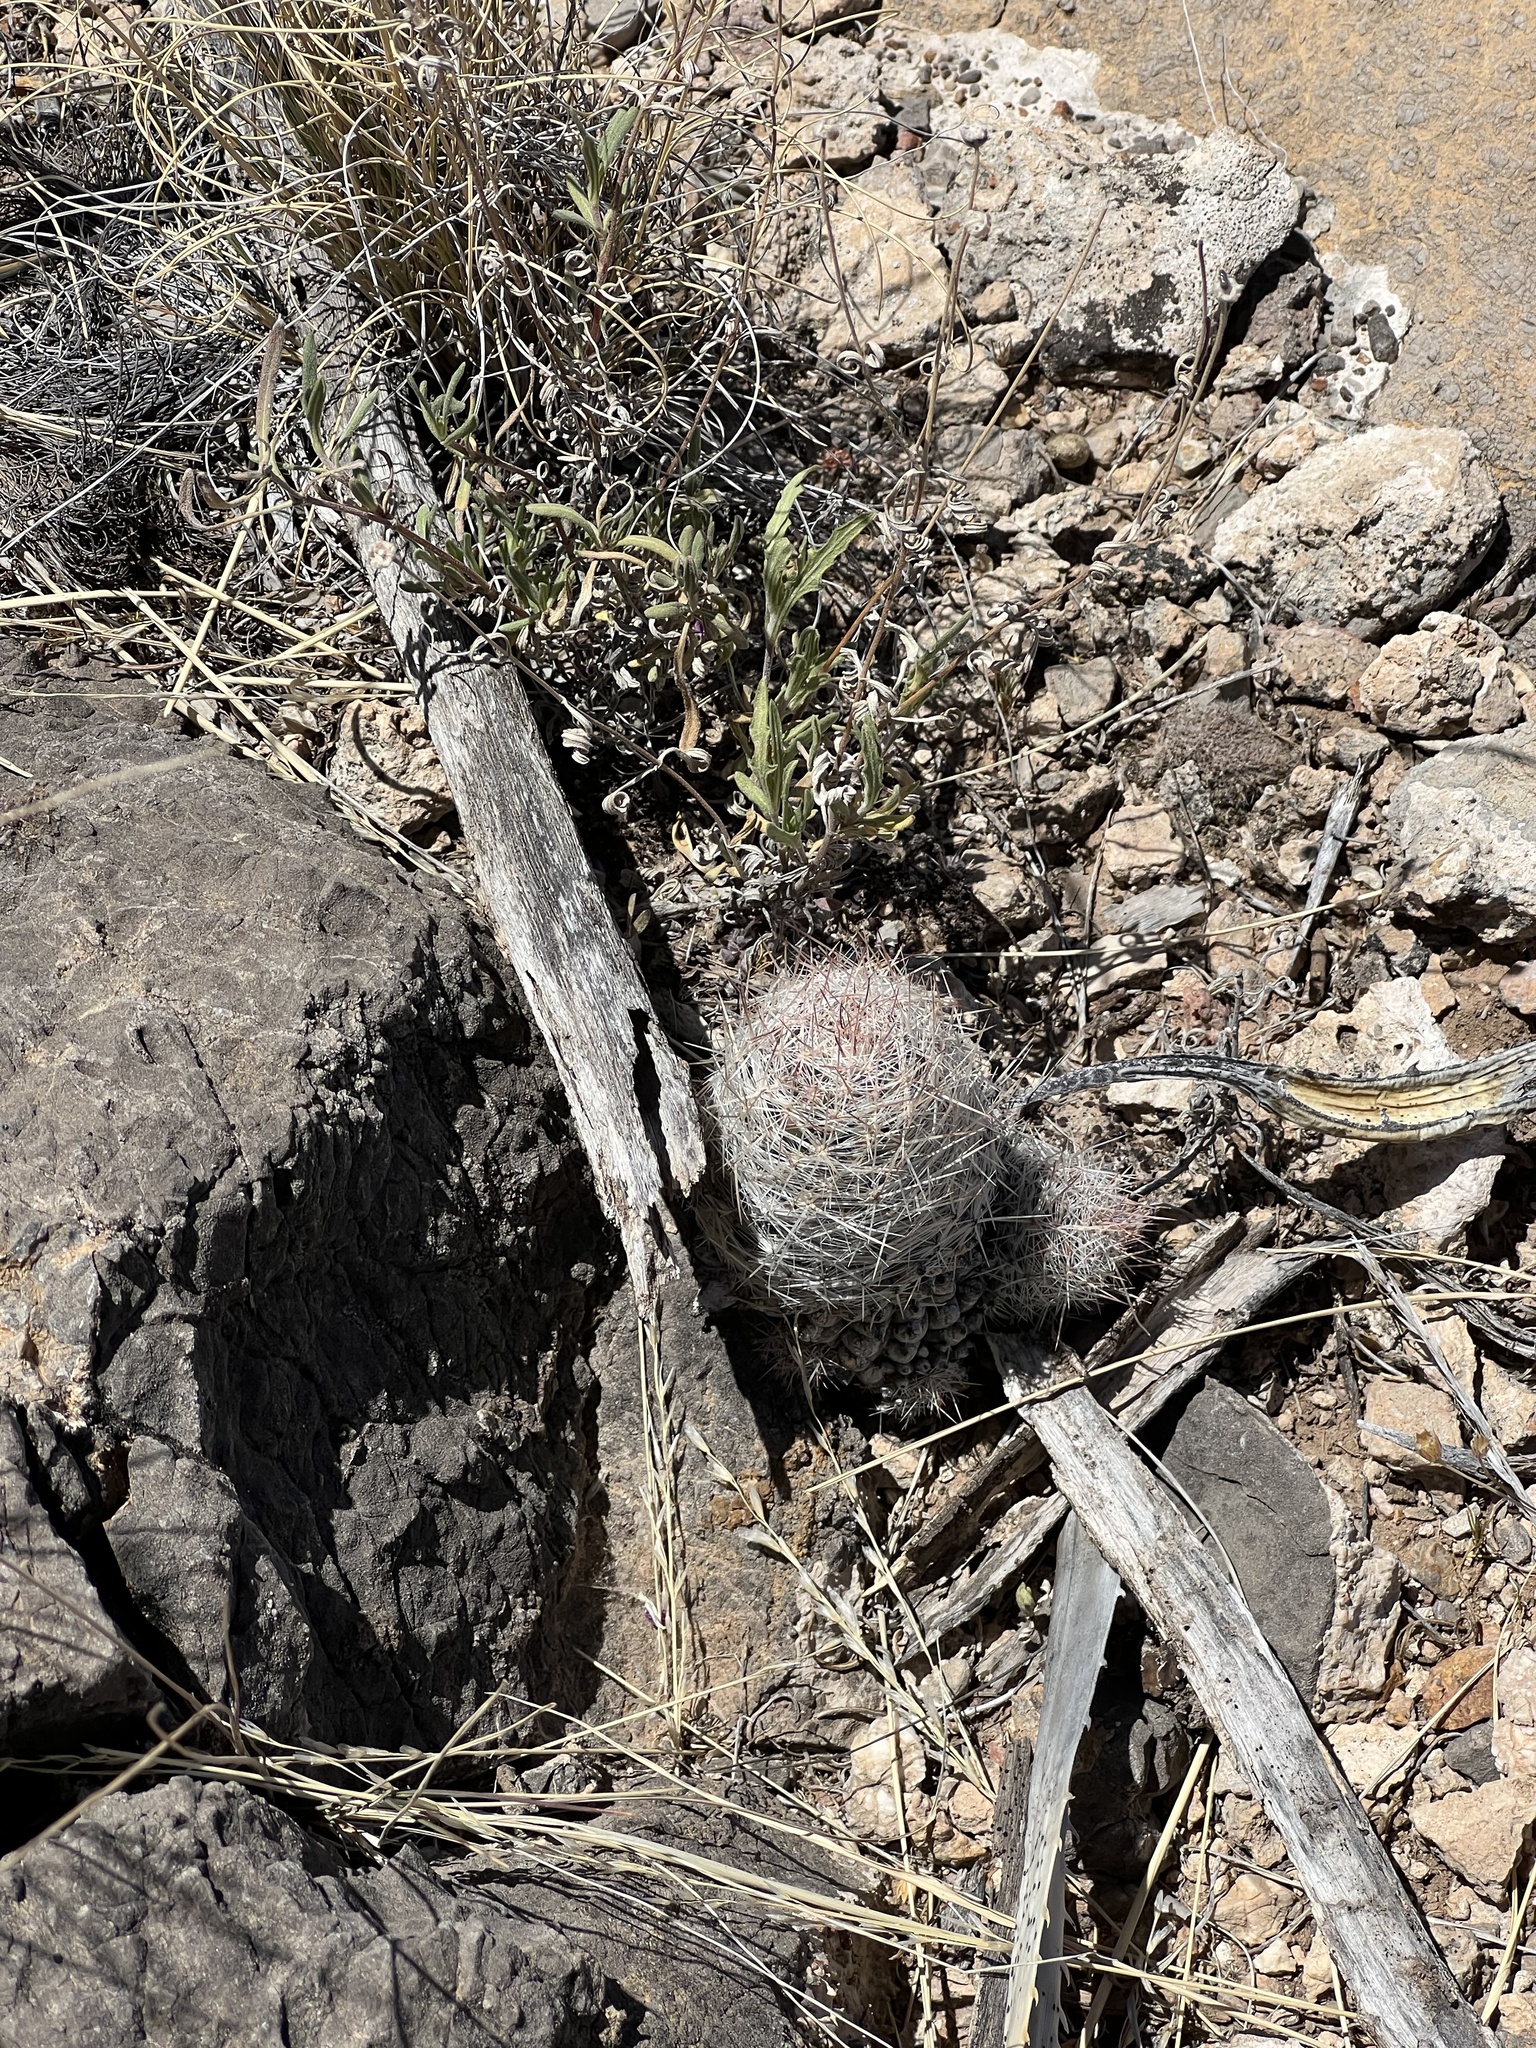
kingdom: Plantae
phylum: Tracheophyta
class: Magnoliopsida
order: Caryophyllales
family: Cactaceae
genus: Pelecyphora
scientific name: Pelecyphora tuberculosa
